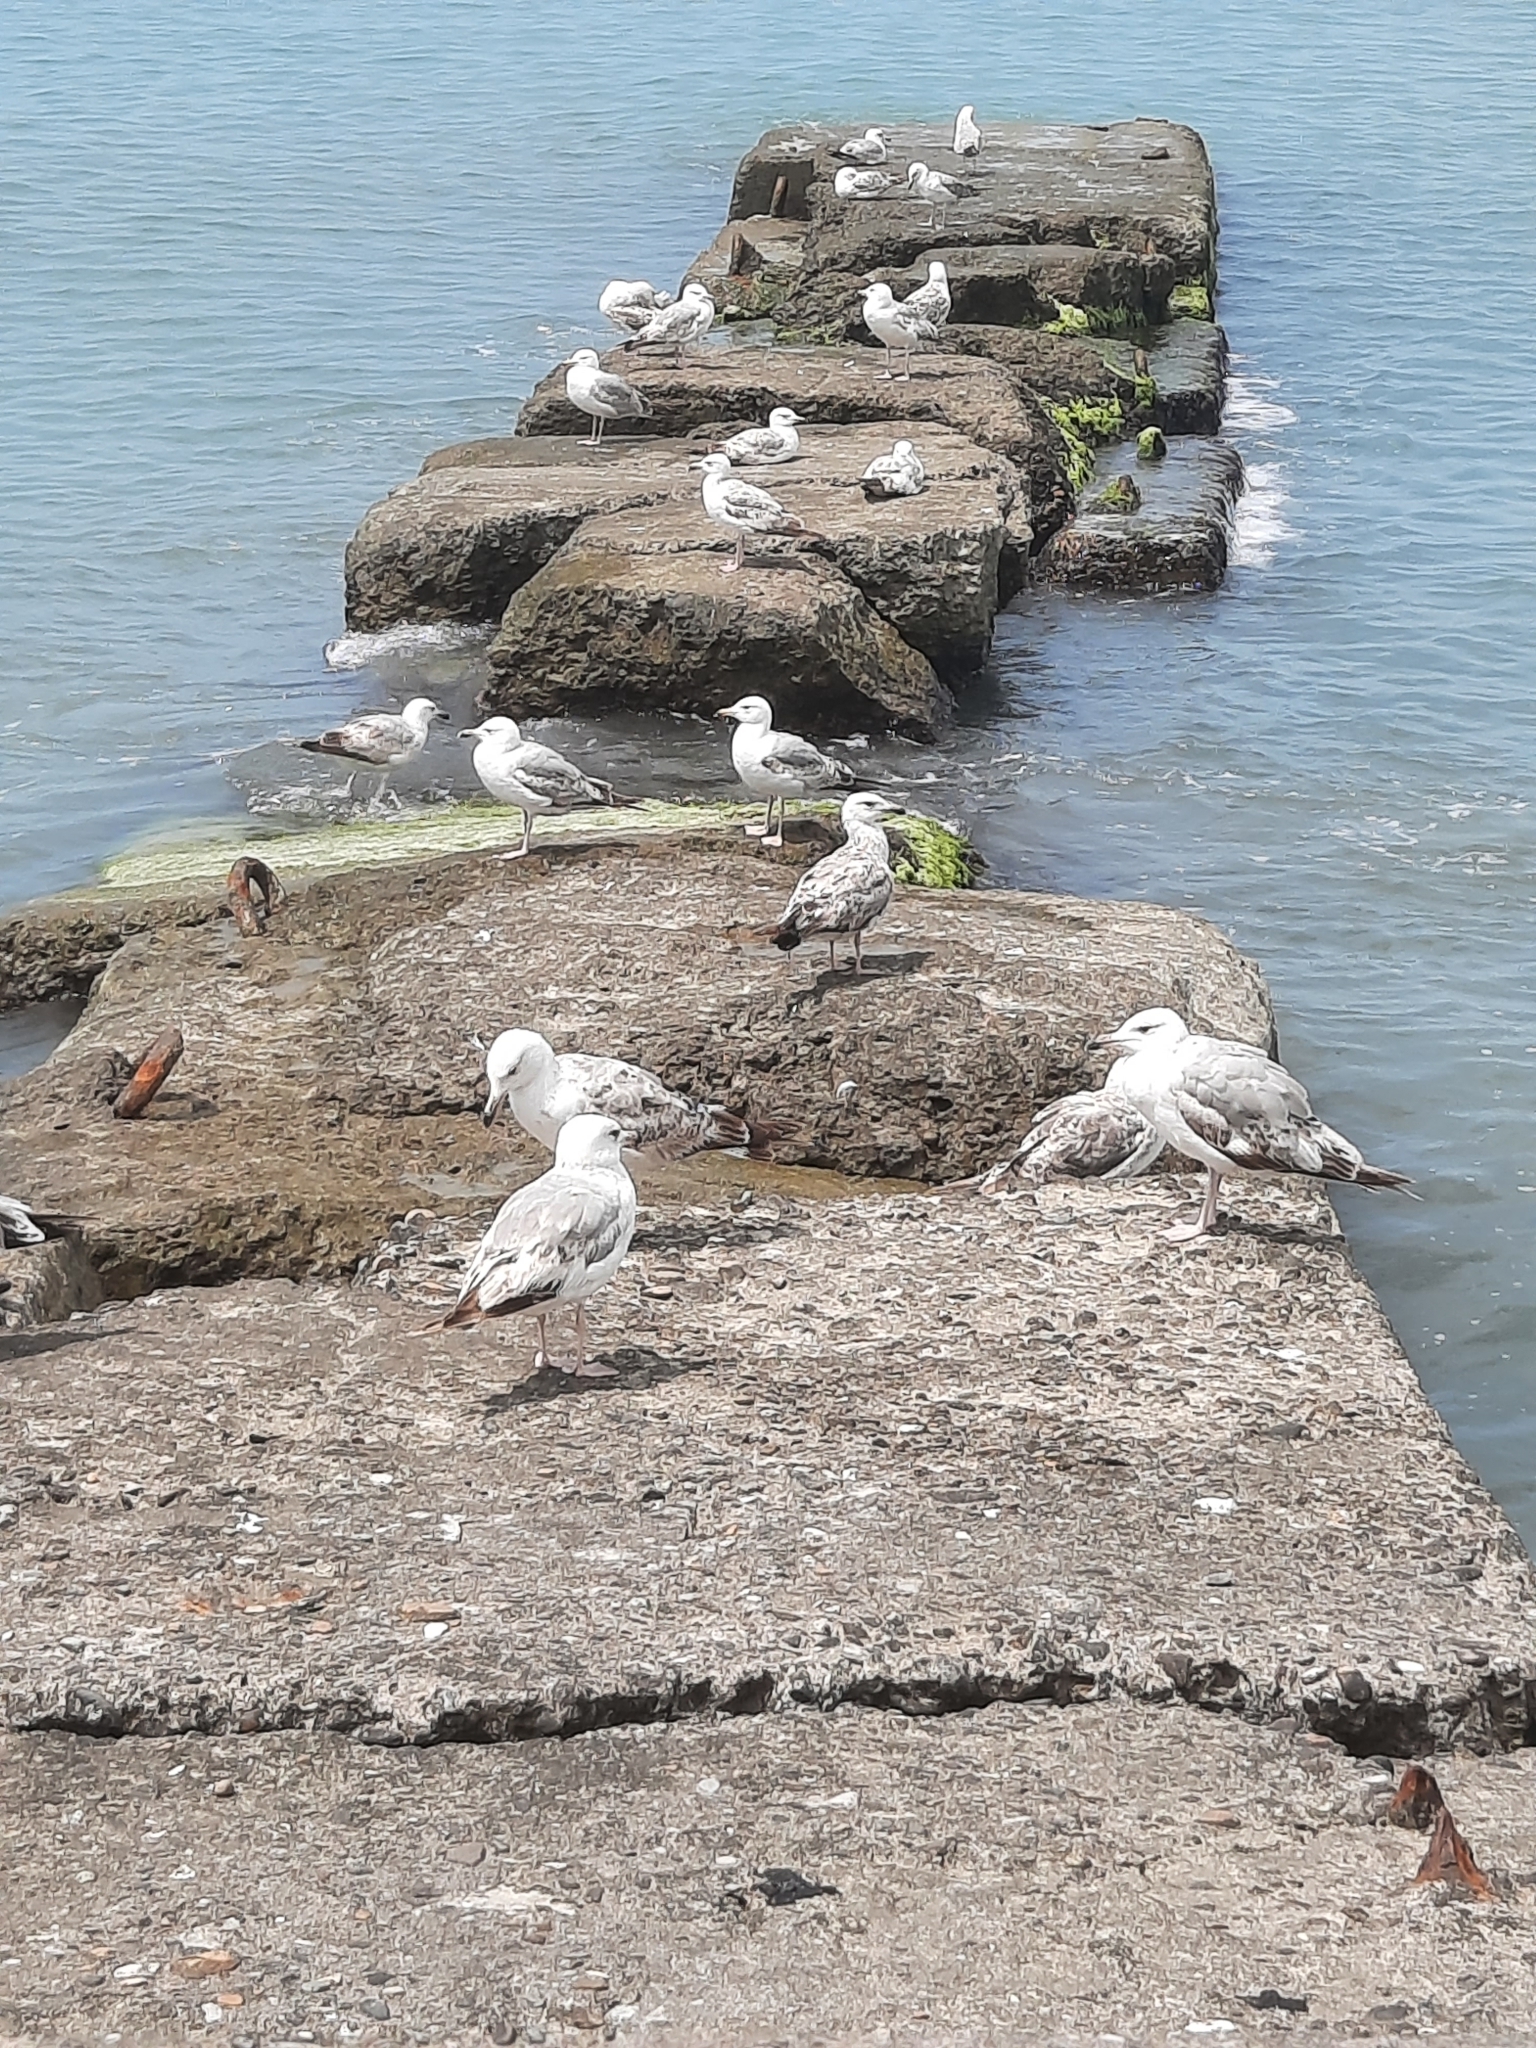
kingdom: Animalia
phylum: Chordata
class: Aves
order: Charadriiformes
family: Laridae
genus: Larus
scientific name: Larus michahellis
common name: Yellow-legged gull
